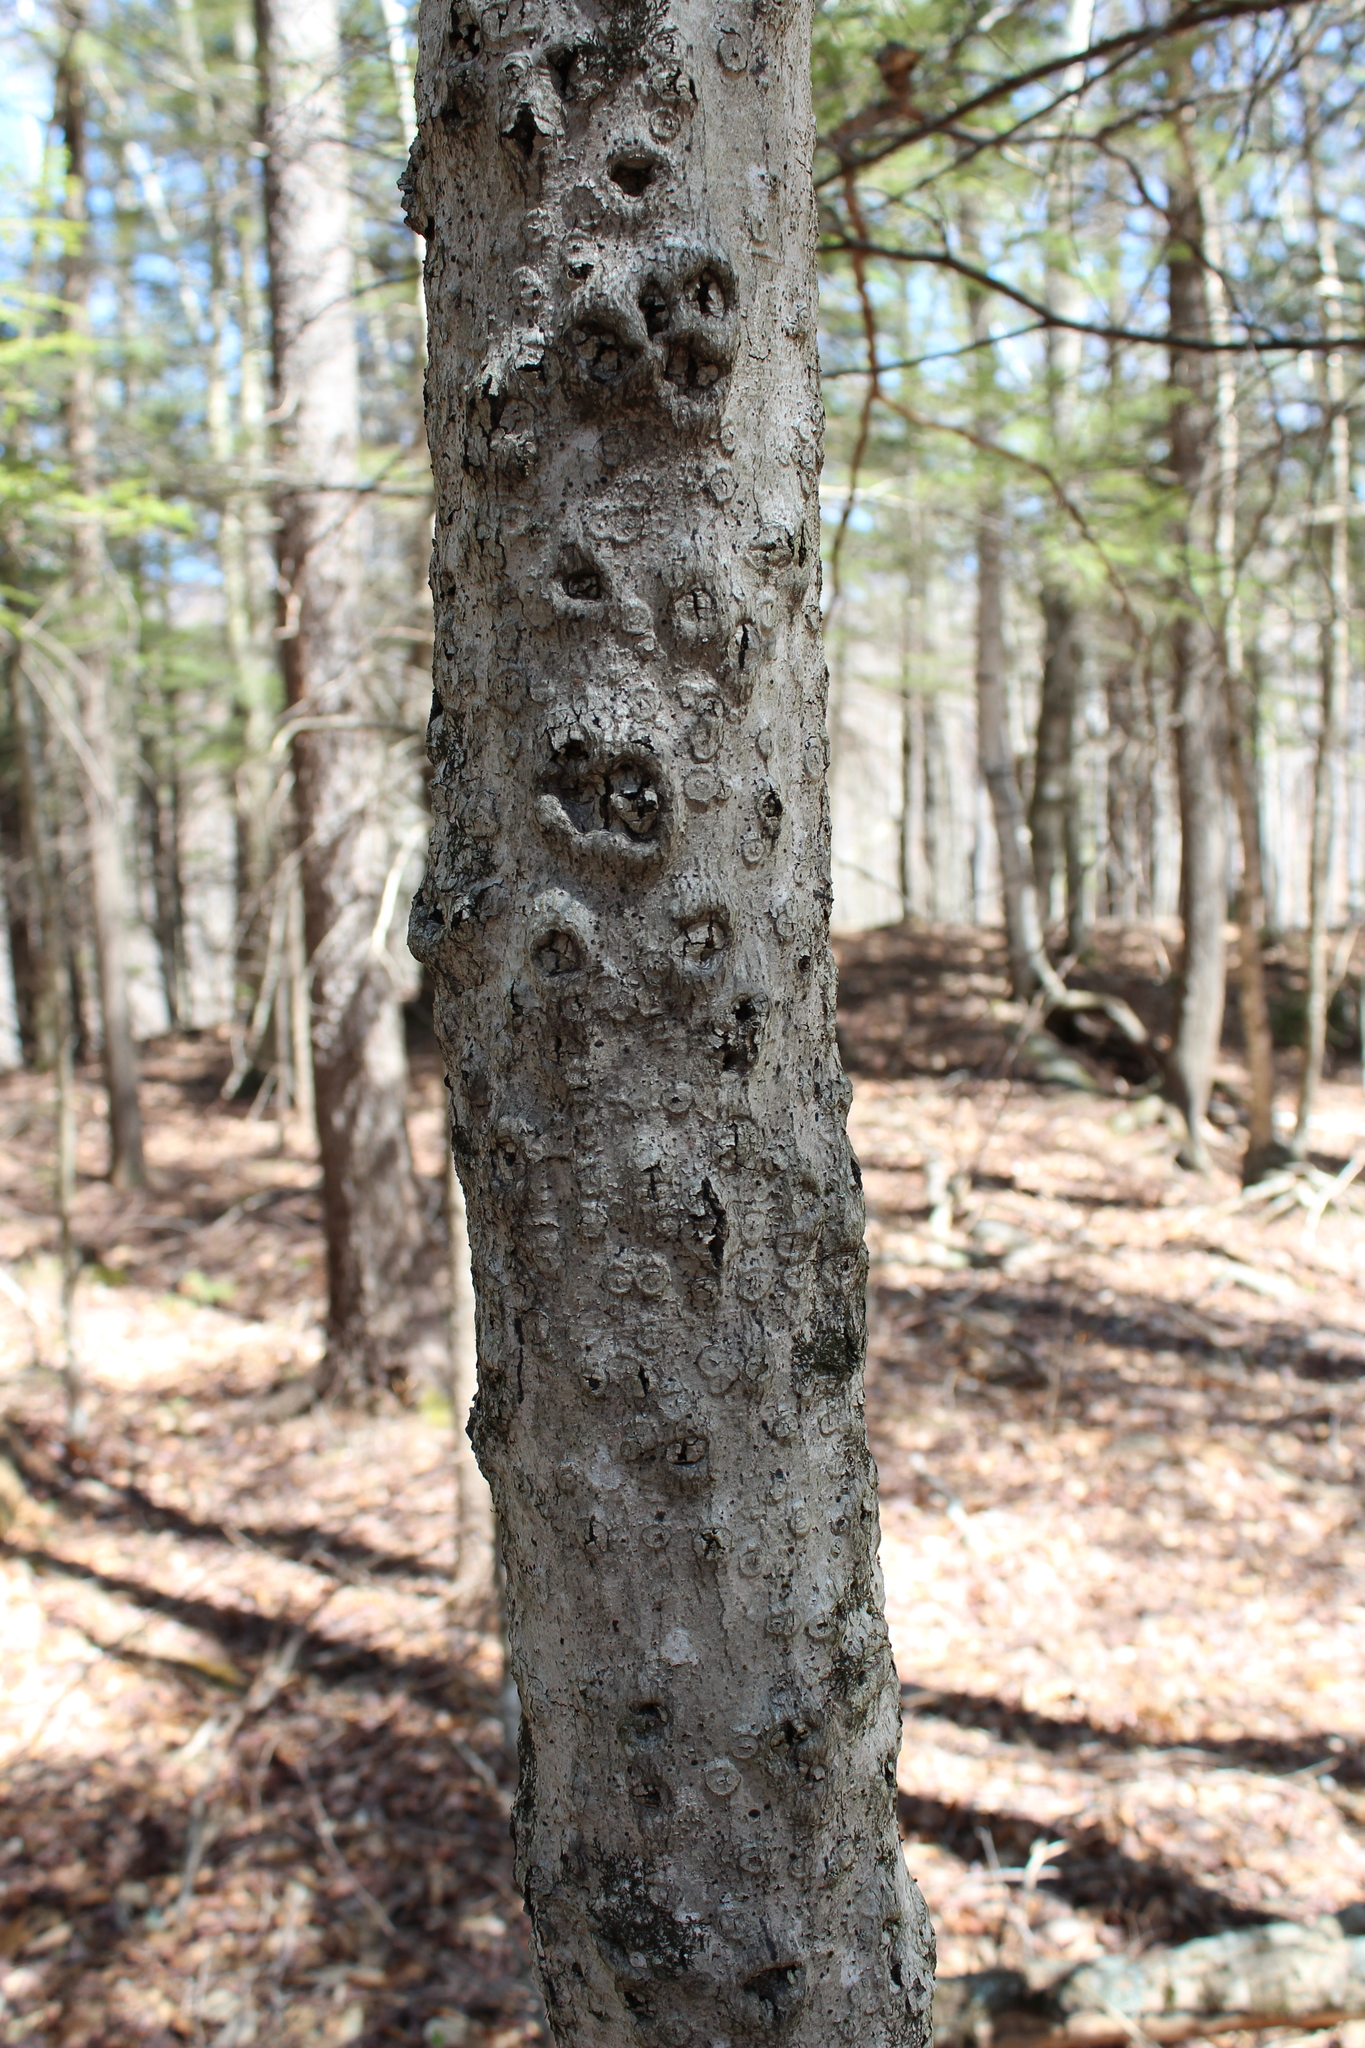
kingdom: Plantae
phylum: Tracheophyta
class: Magnoliopsida
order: Fagales
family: Fagaceae
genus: Fagus
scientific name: Fagus grandifolia
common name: American beech
